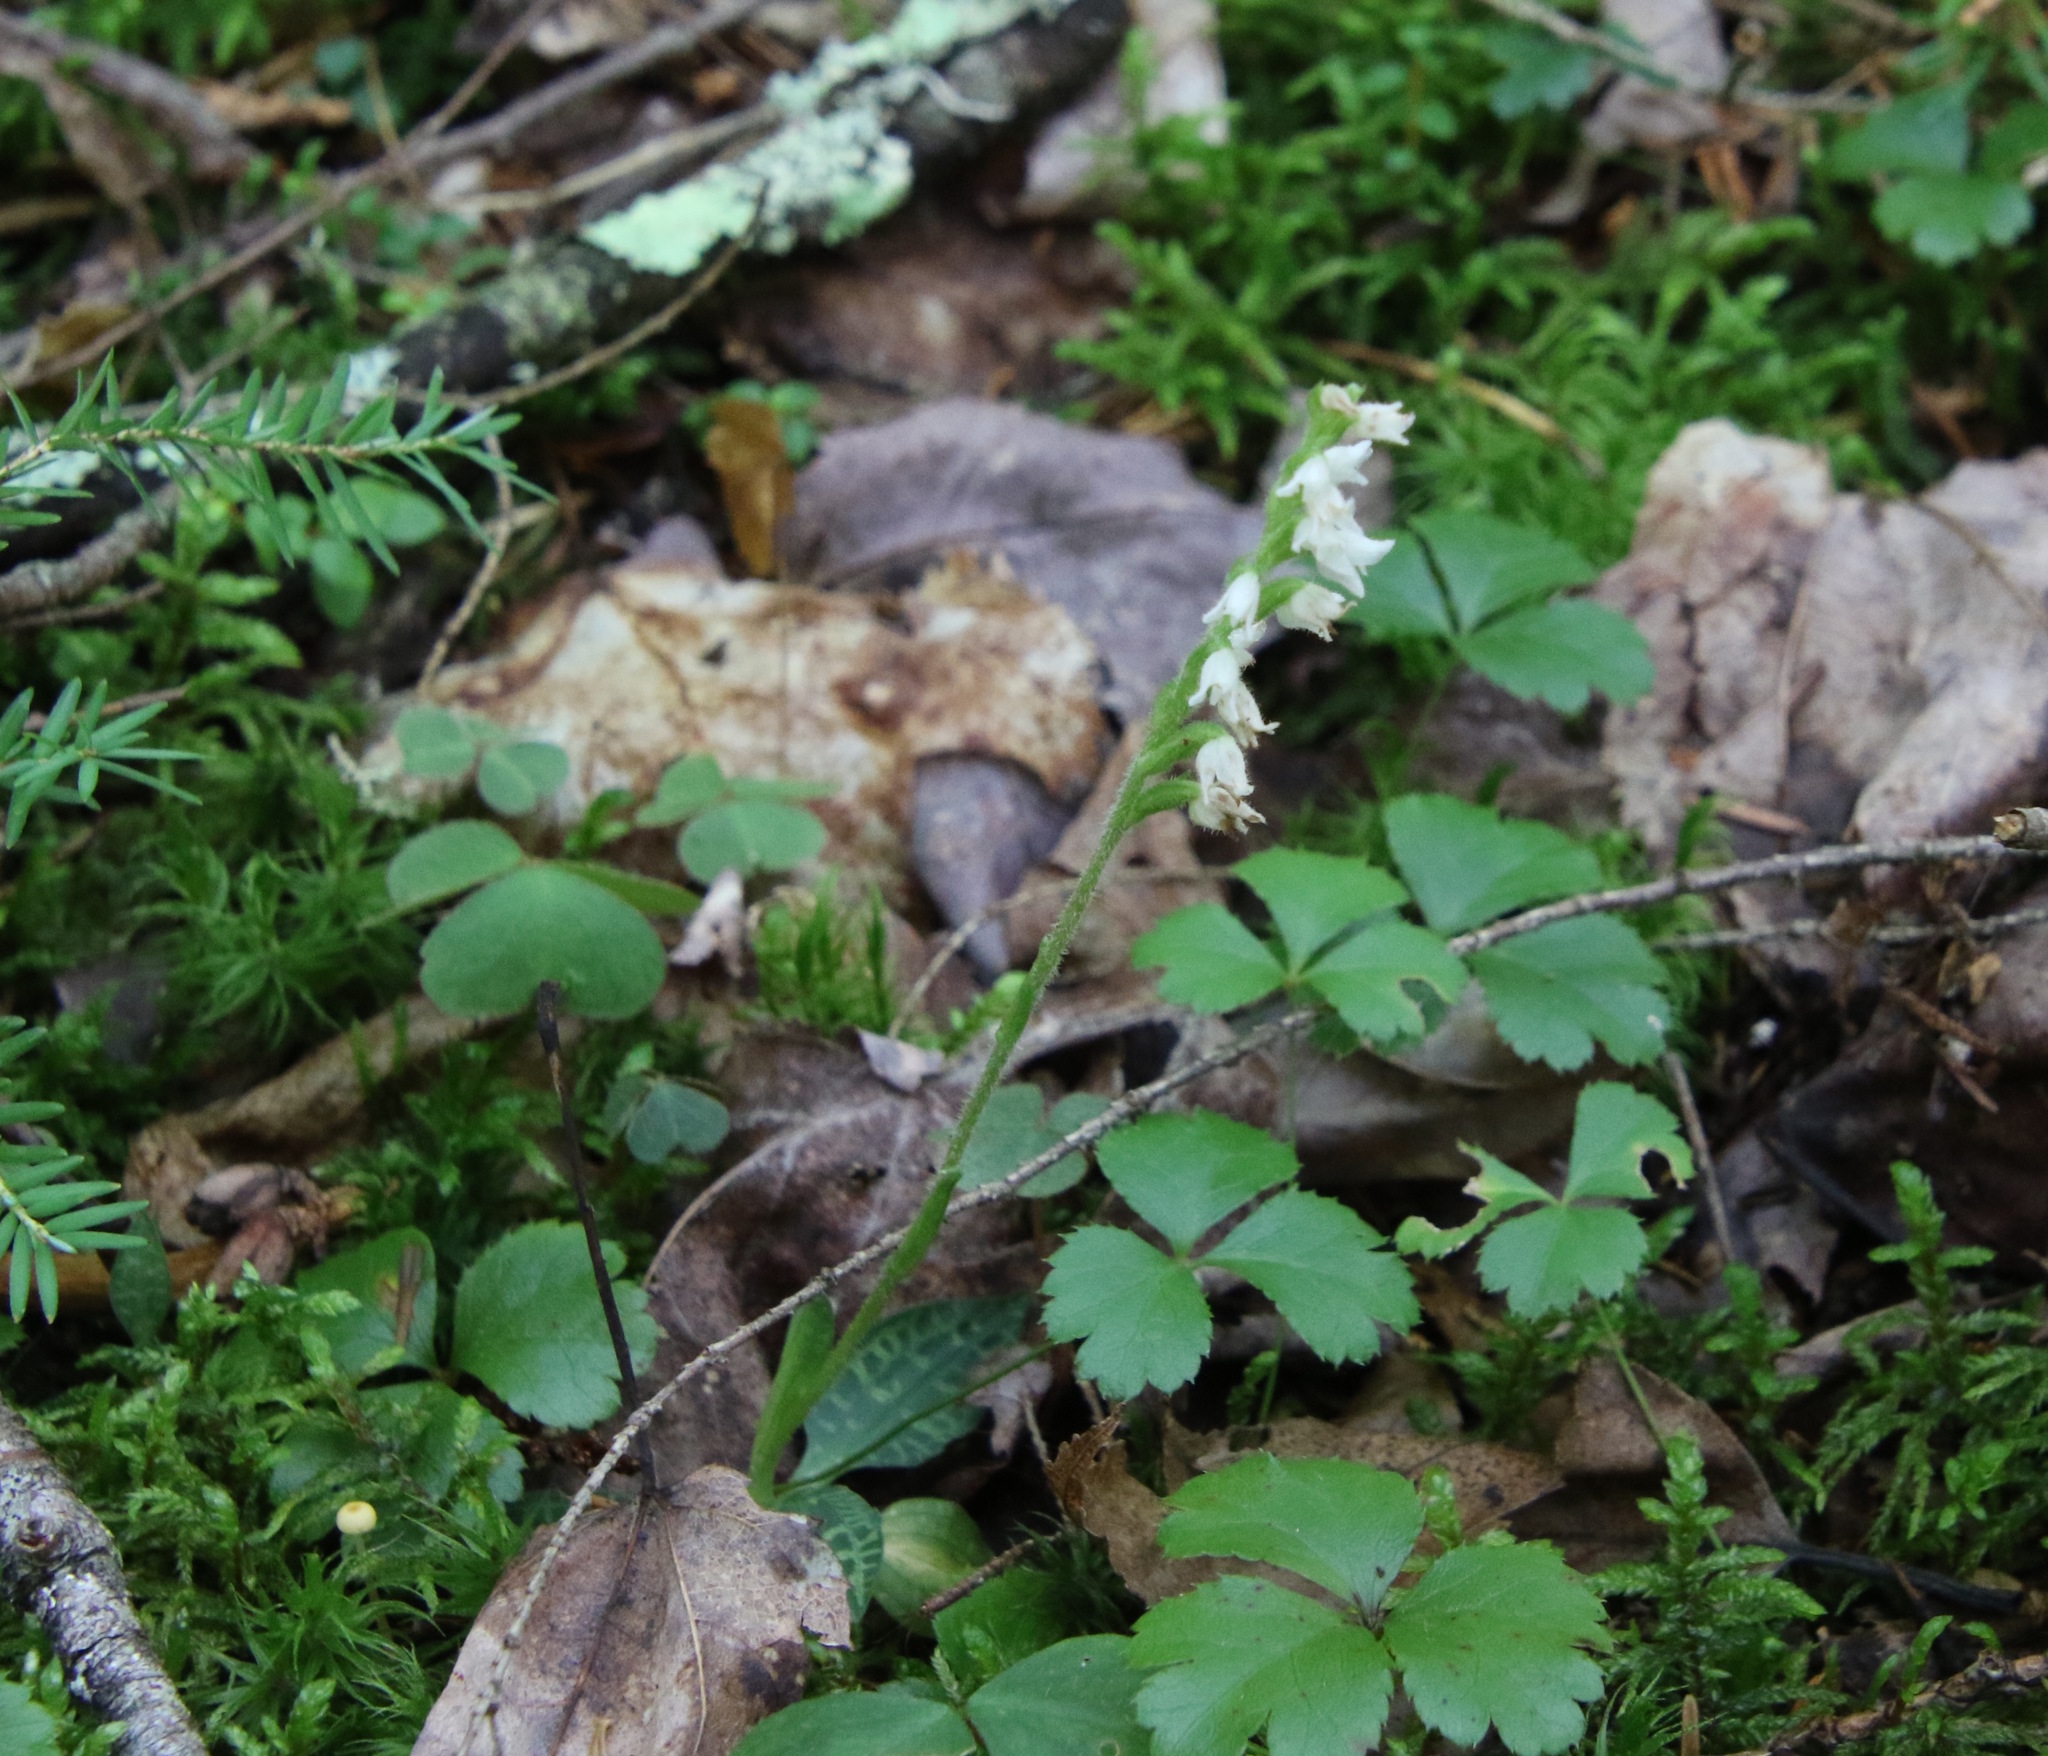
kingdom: Plantae
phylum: Tracheophyta
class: Liliopsida
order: Asparagales
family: Orchidaceae
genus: Goodyera
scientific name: Goodyera repens
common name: Creeping lady's-tresses
